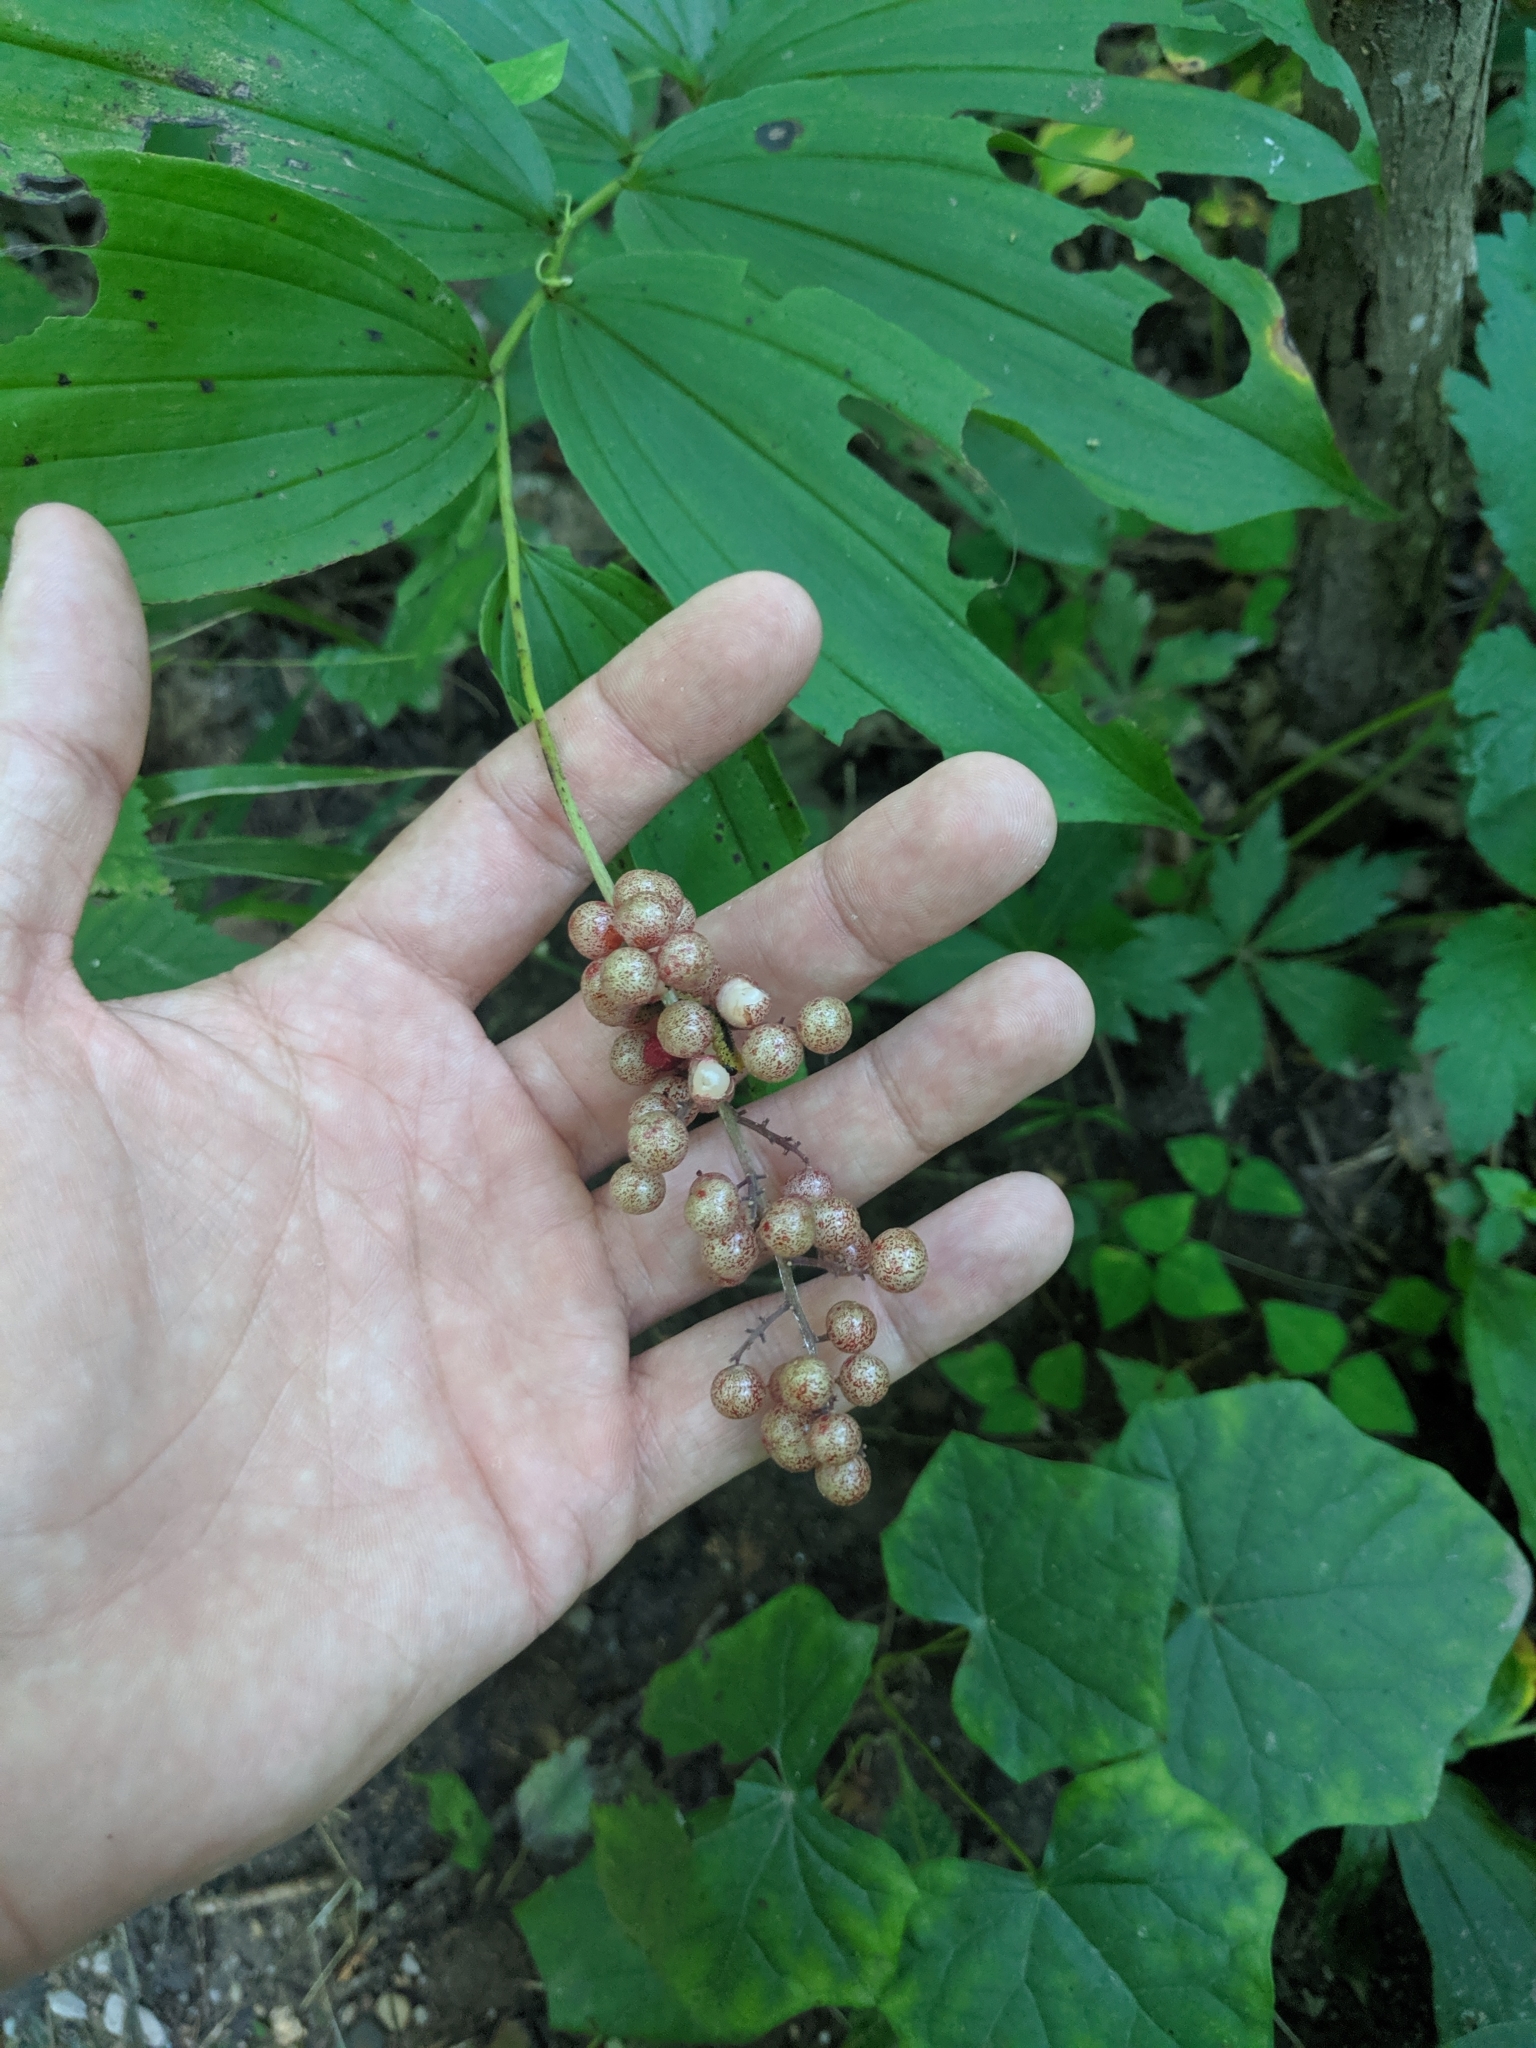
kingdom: Plantae
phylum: Tracheophyta
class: Liliopsida
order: Asparagales
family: Asparagaceae
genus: Maianthemum
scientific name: Maianthemum racemosum
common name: False spikenard
